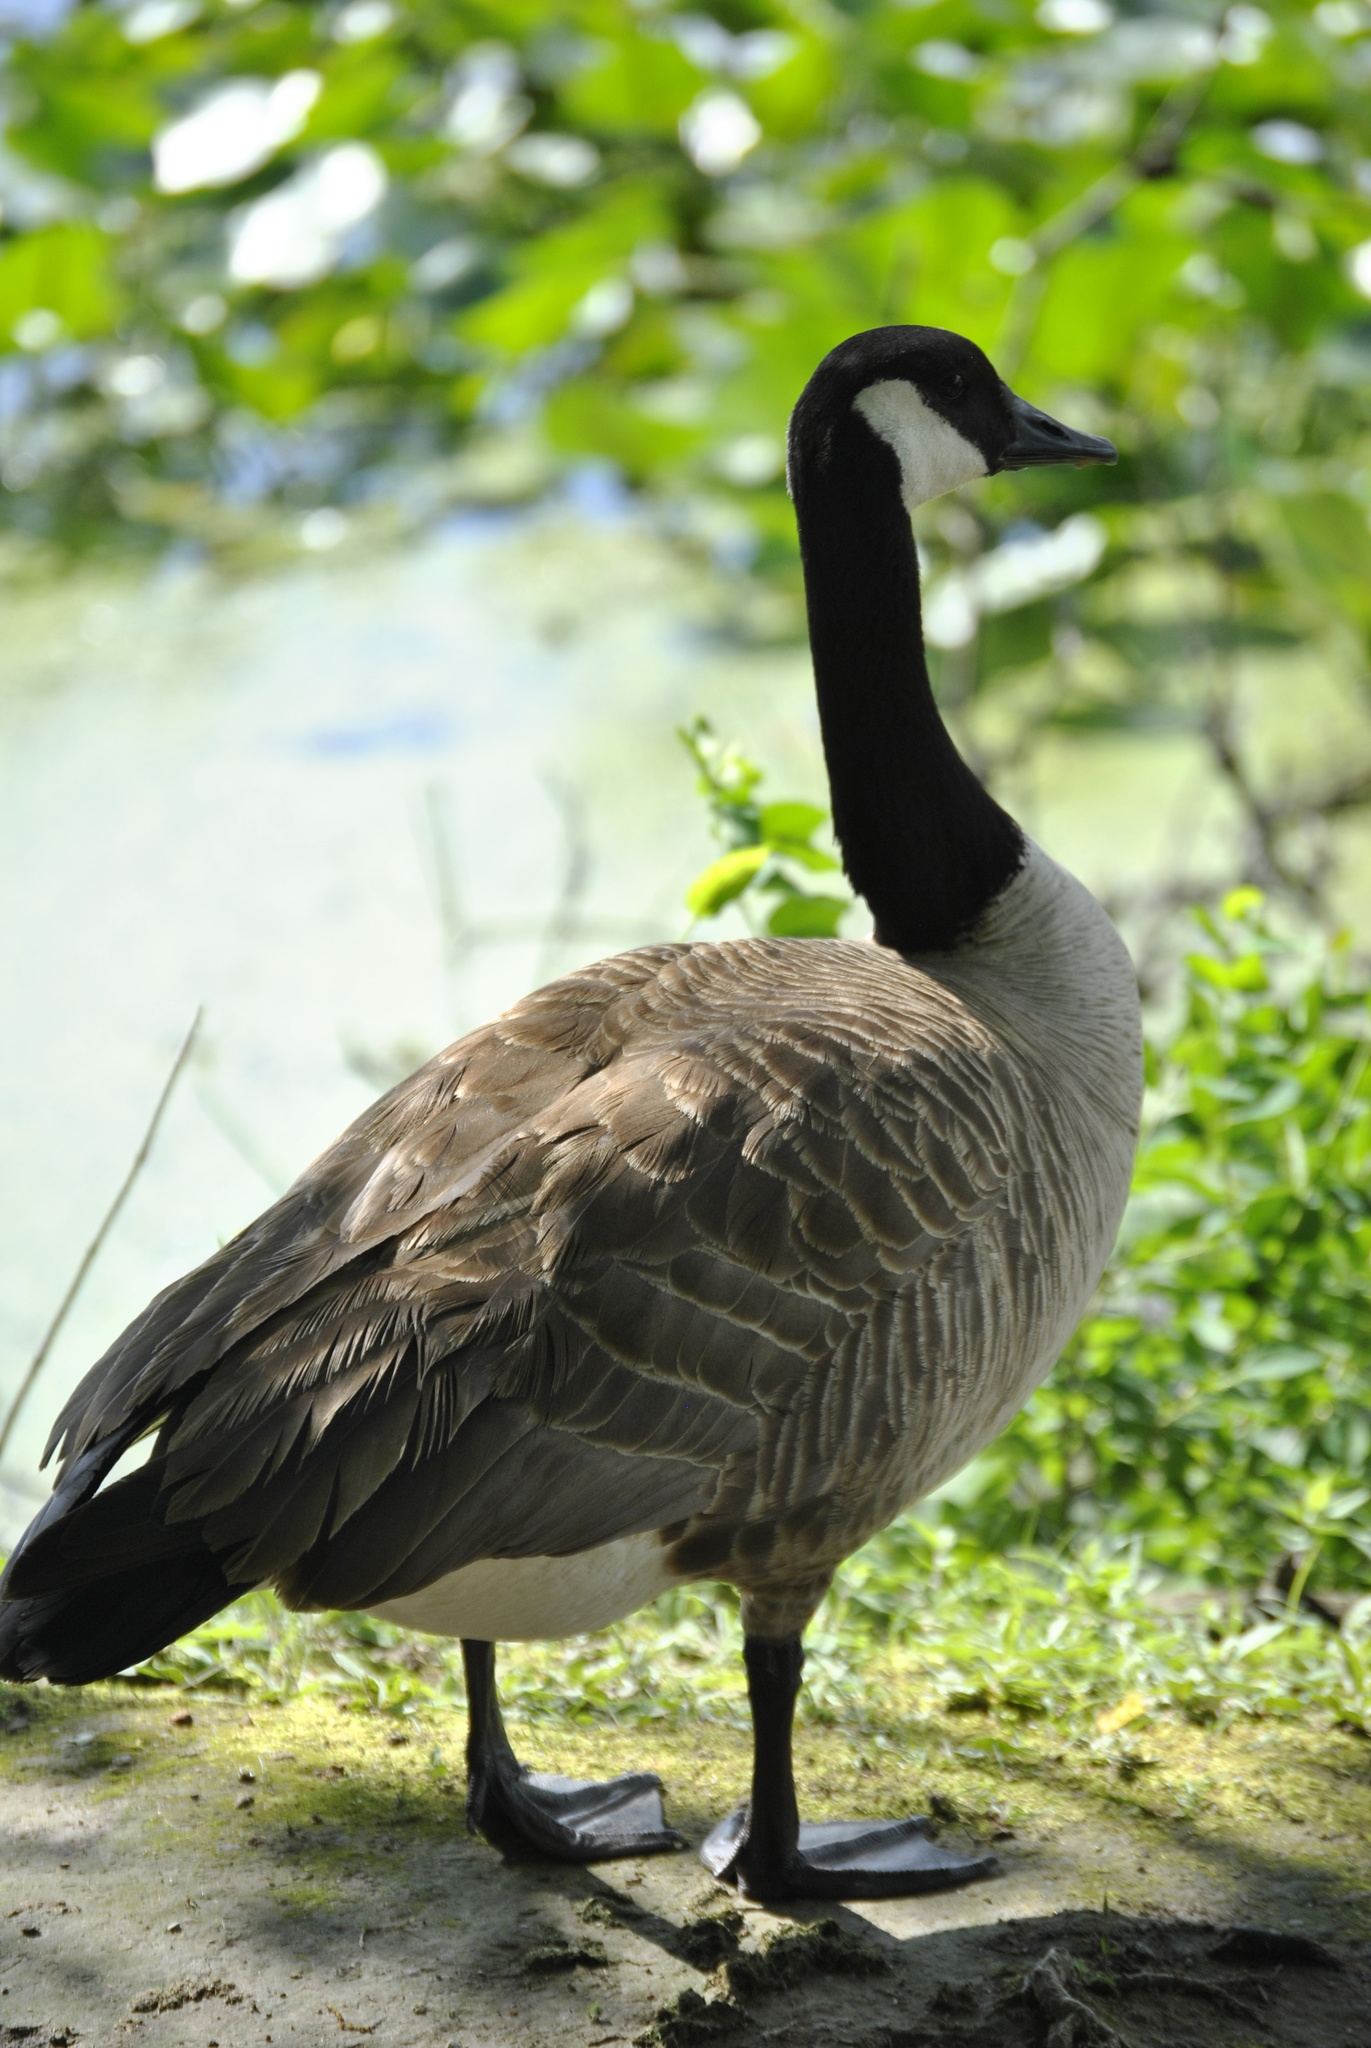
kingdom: Animalia
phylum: Chordata
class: Aves
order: Anseriformes
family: Anatidae
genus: Branta
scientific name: Branta canadensis
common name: Canada goose
